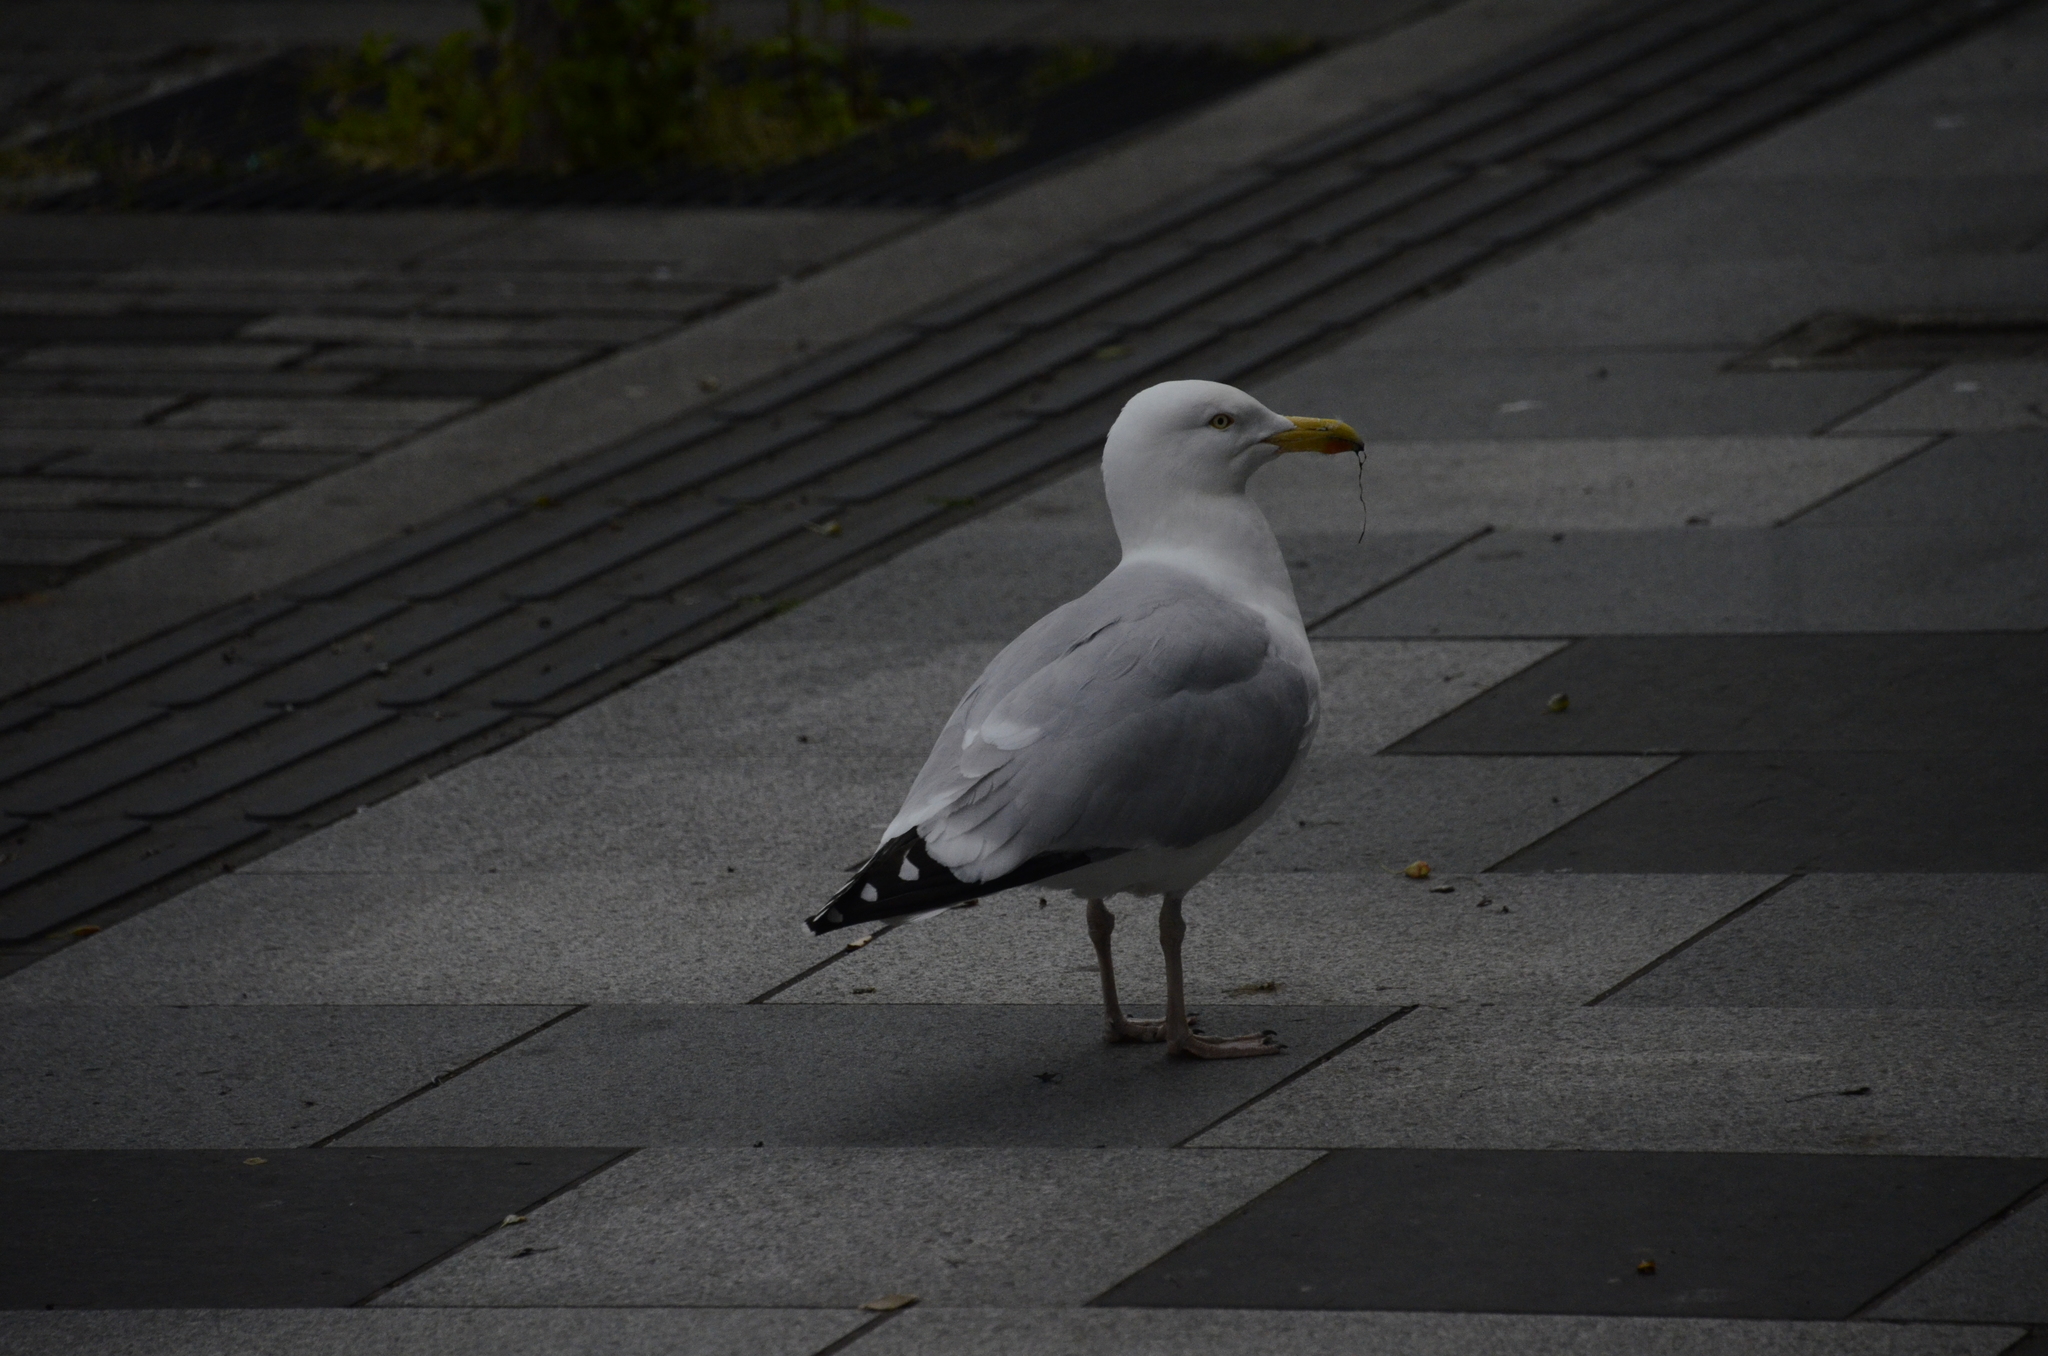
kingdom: Animalia
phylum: Chordata
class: Aves
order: Charadriiformes
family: Laridae
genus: Larus
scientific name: Larus argentatus
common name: Herring gull
